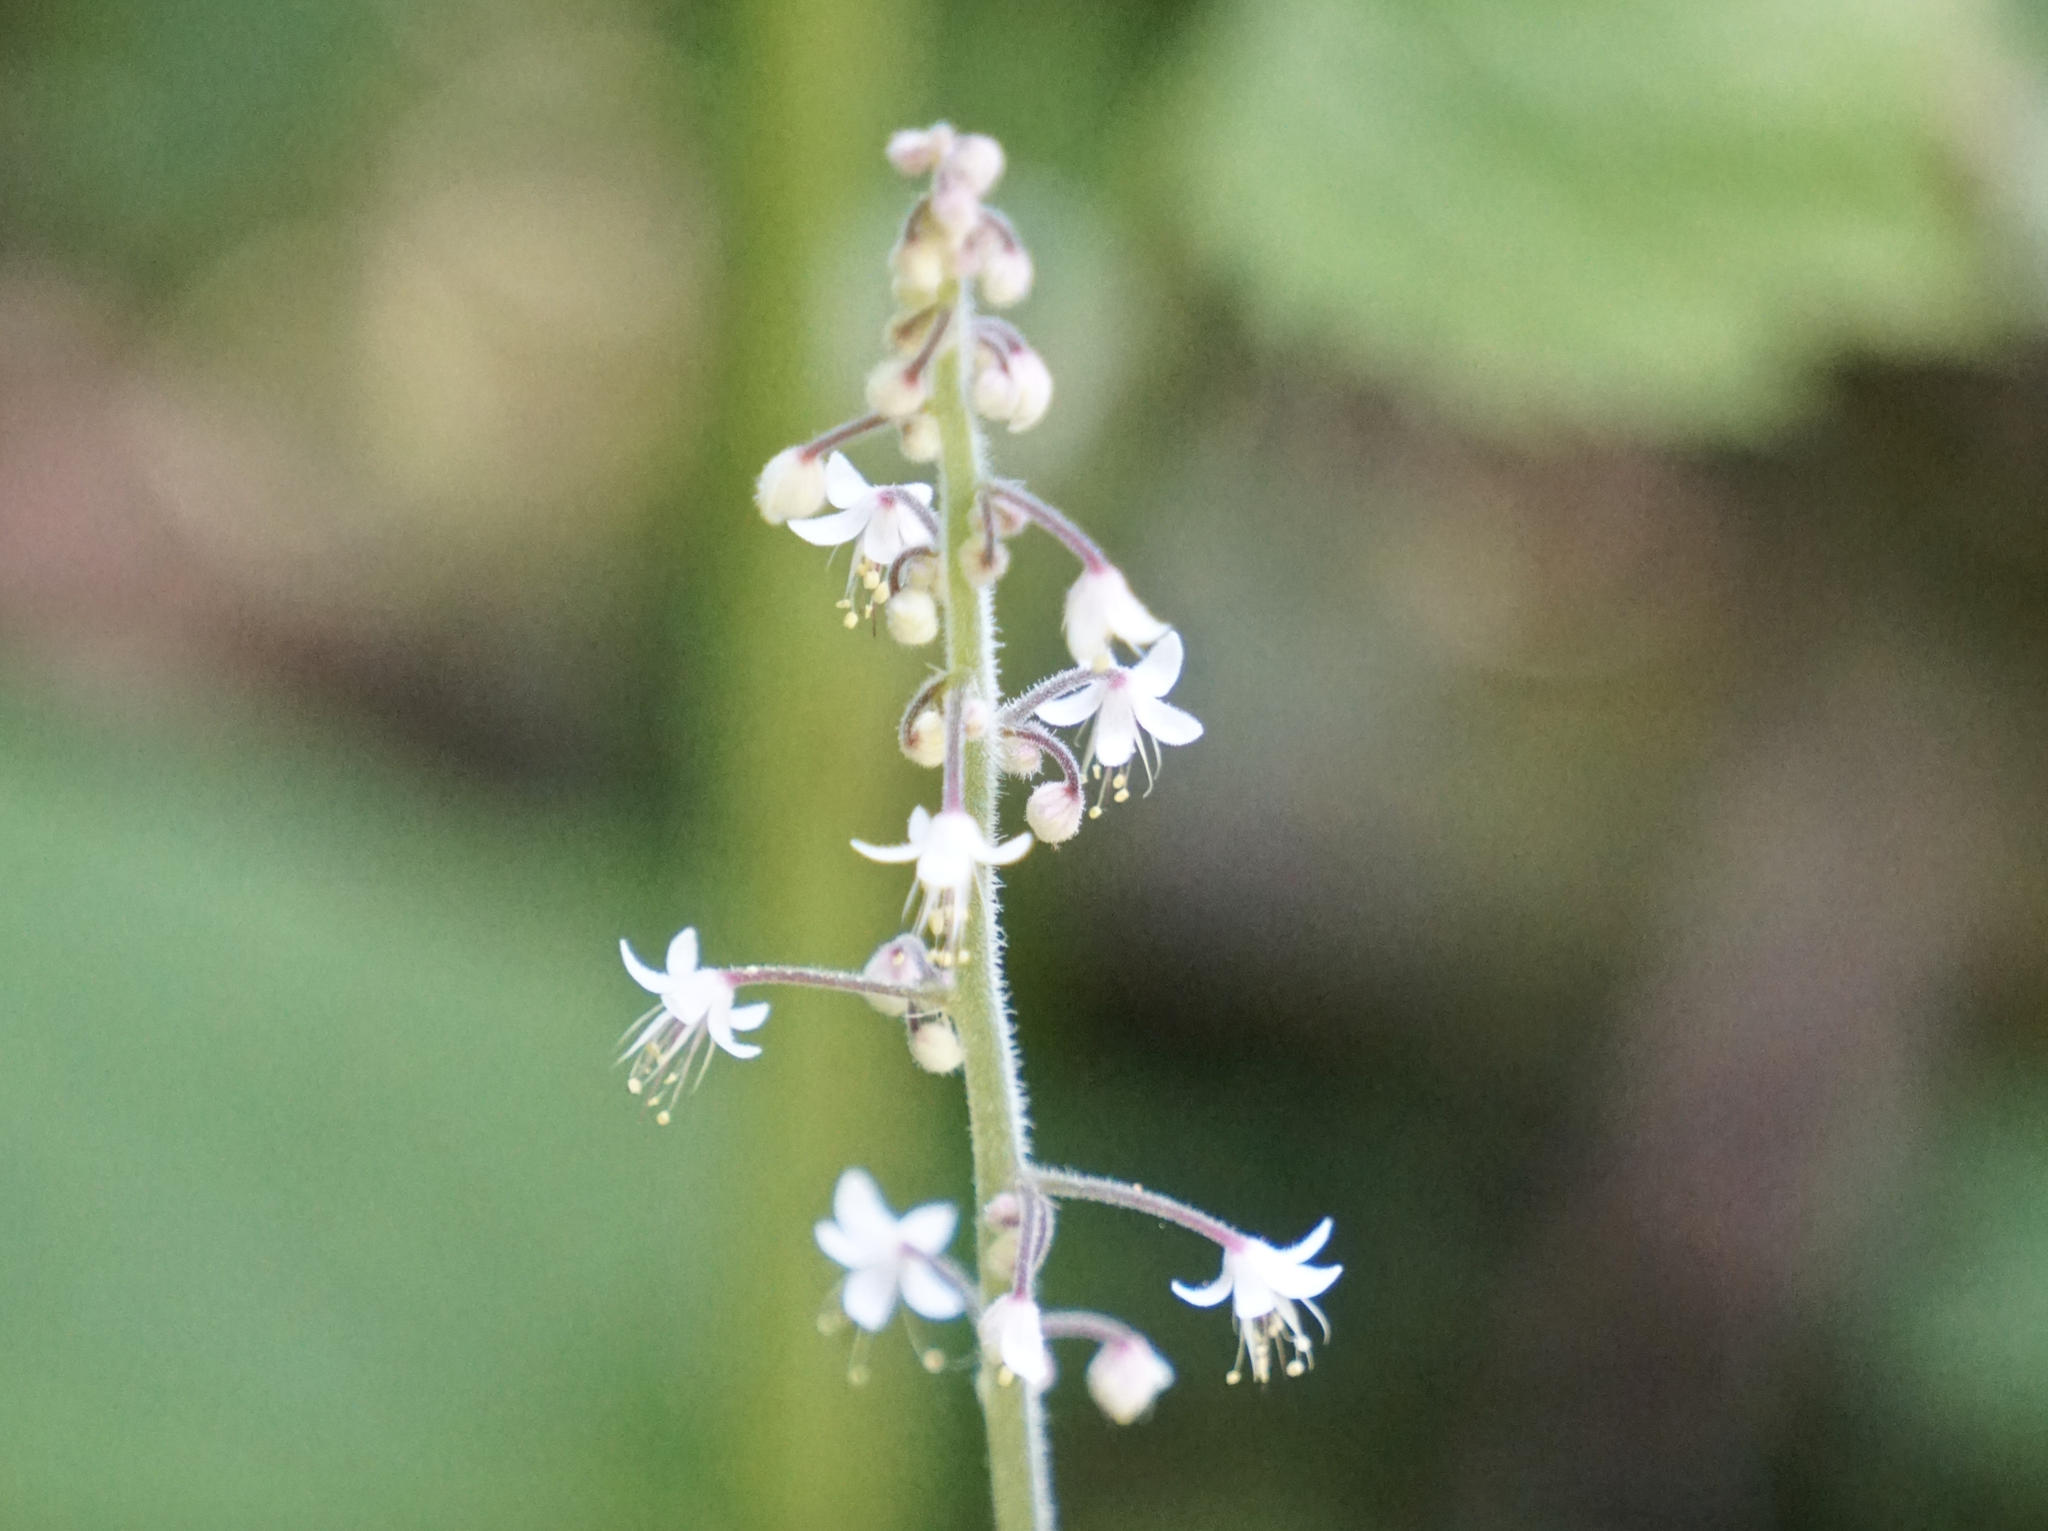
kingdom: Plantae
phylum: Tracheophyta
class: Magnoliopsida
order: Saxifragales
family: Saxifragaceae
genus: Tiarella
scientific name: Tiarella trifoliata
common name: Sugar-scoop
